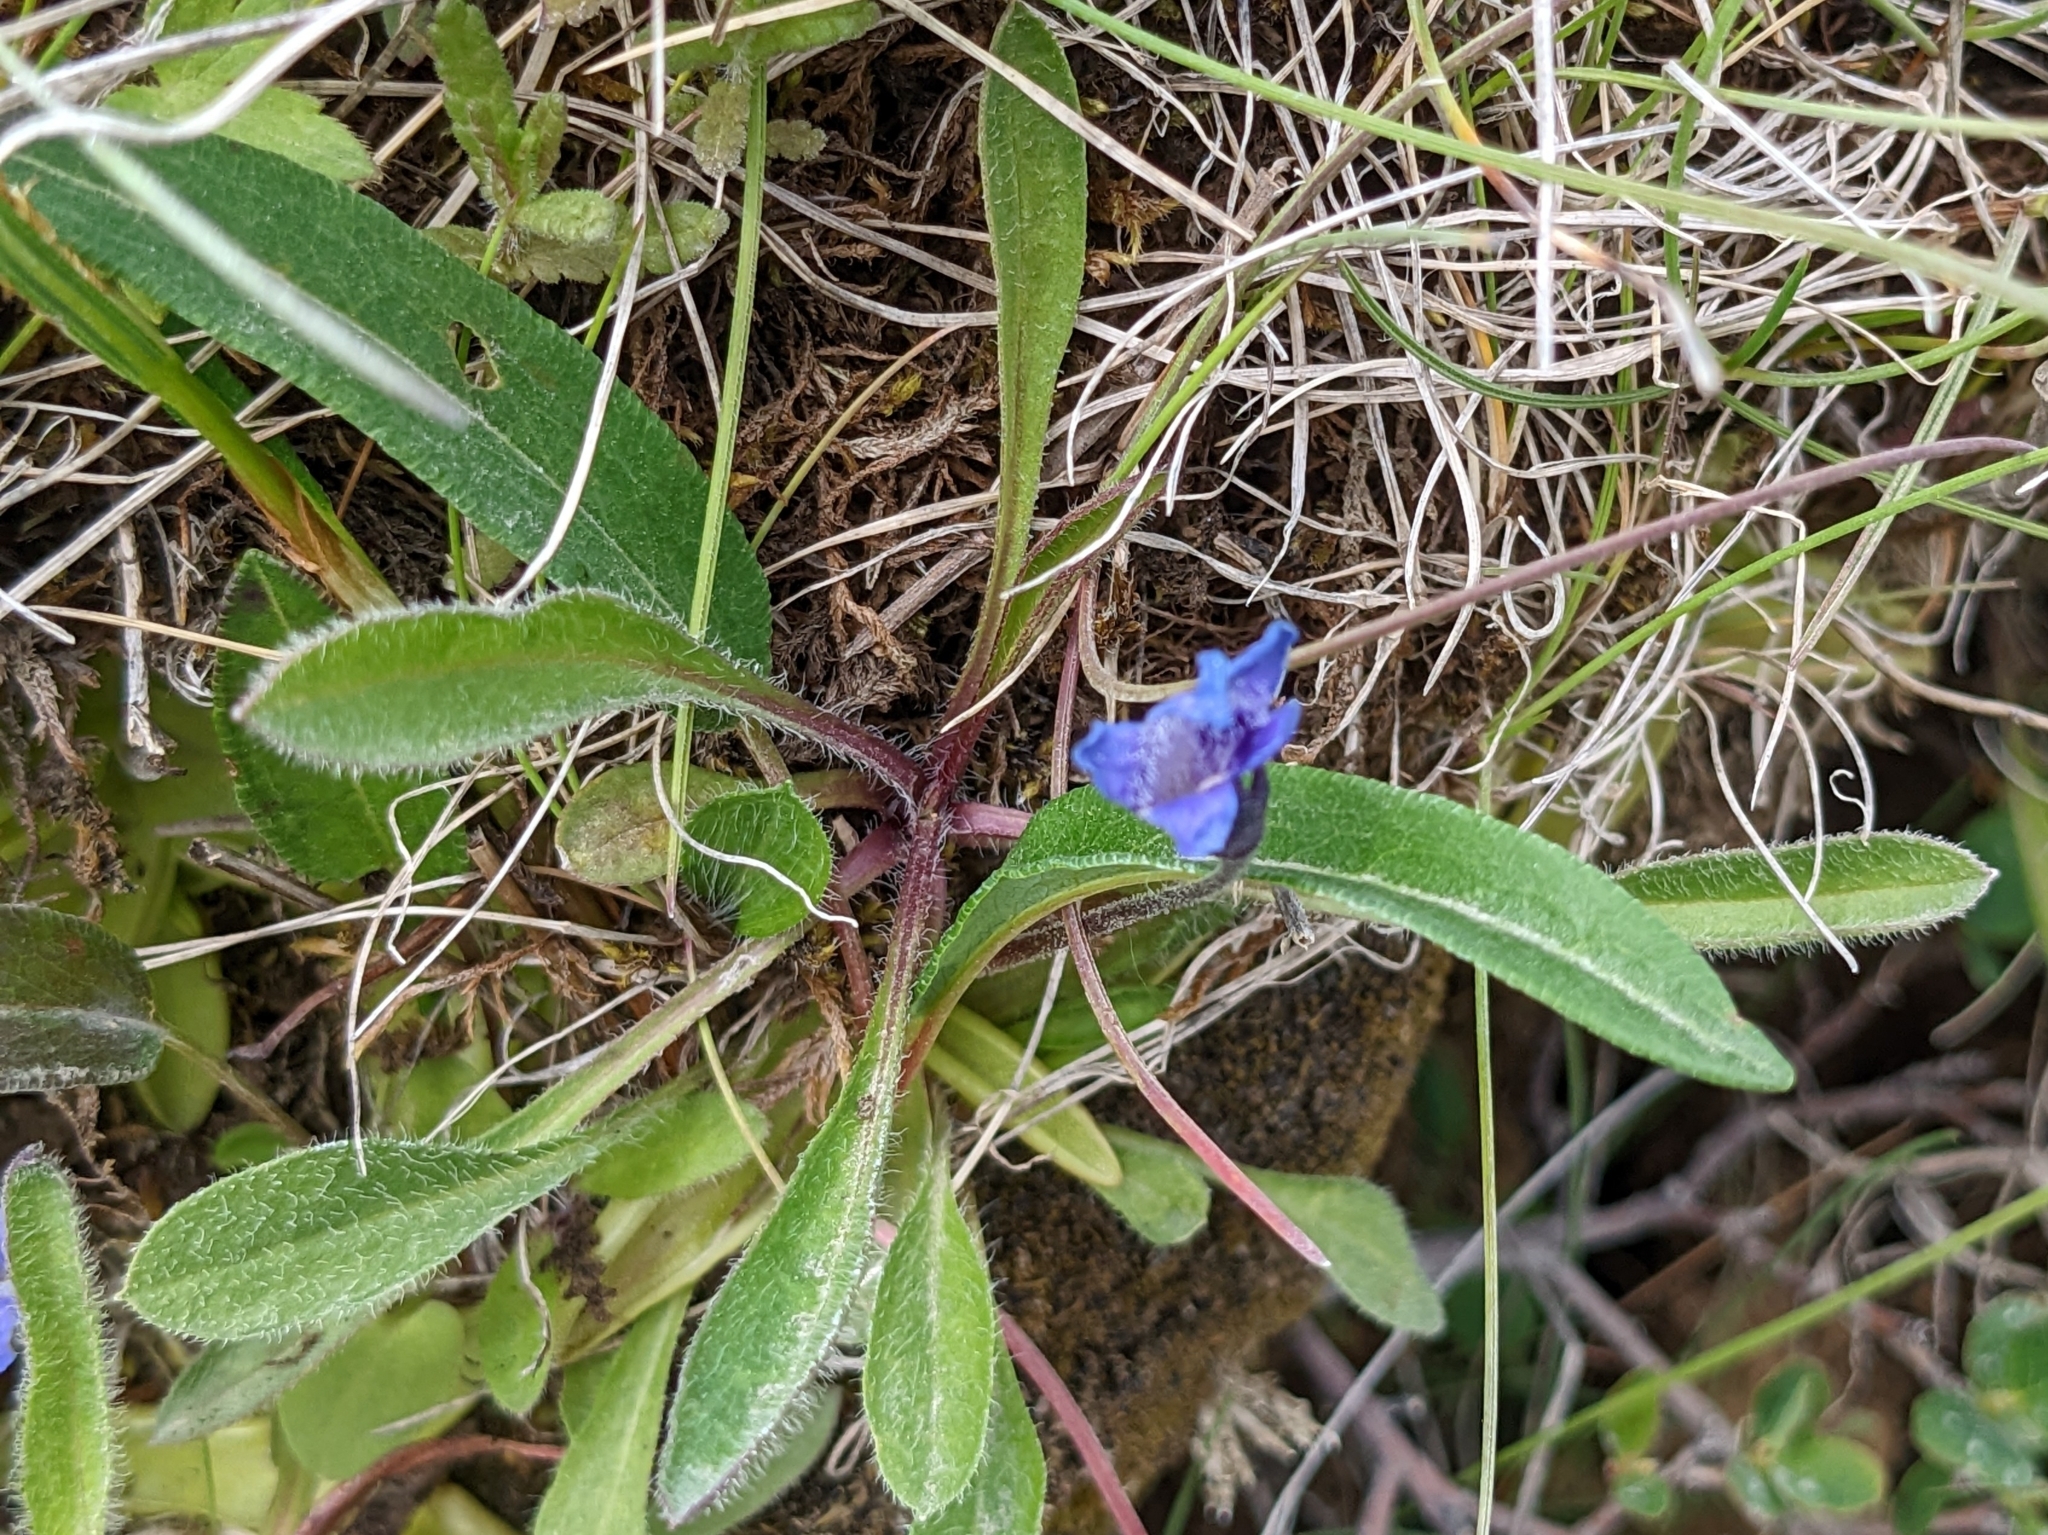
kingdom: Plantae
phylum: Tracheophyta
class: Magnoliopsida
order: Lamiales
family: Lentibulariaceae
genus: Pinguicula
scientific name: Pinguicula vulgaris
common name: Common butterwort
